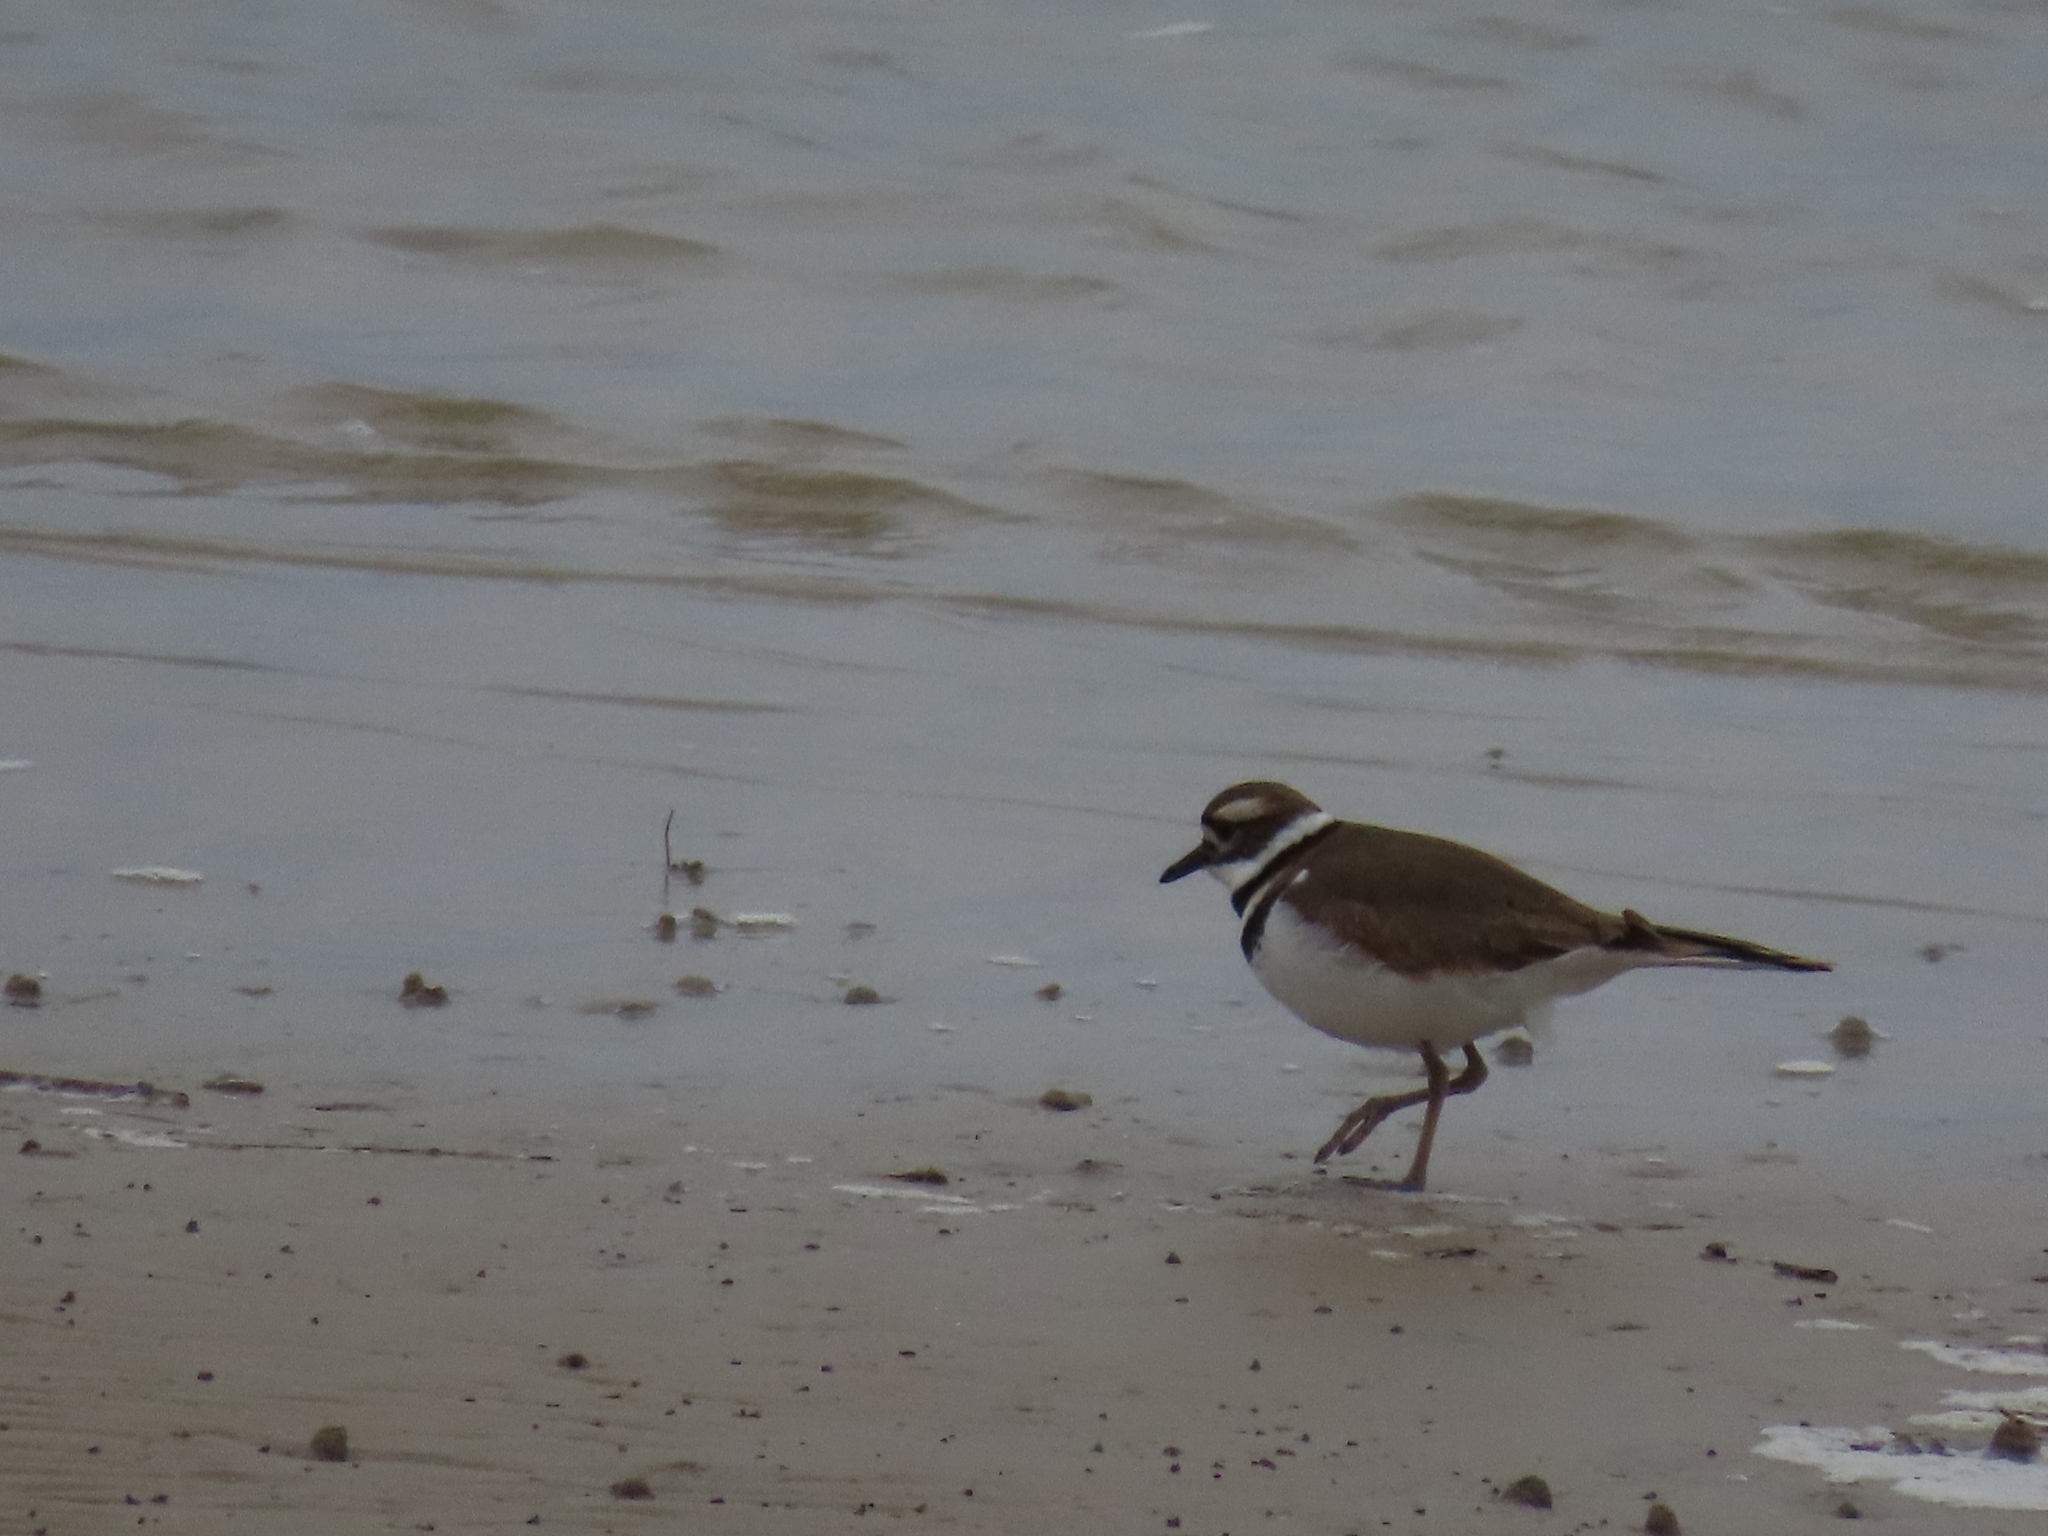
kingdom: Animalia
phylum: Chordata
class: Aves
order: Charadriiformes
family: Charadriidae
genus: Charadrius
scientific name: Charadrius vociferus
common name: Killdeer
